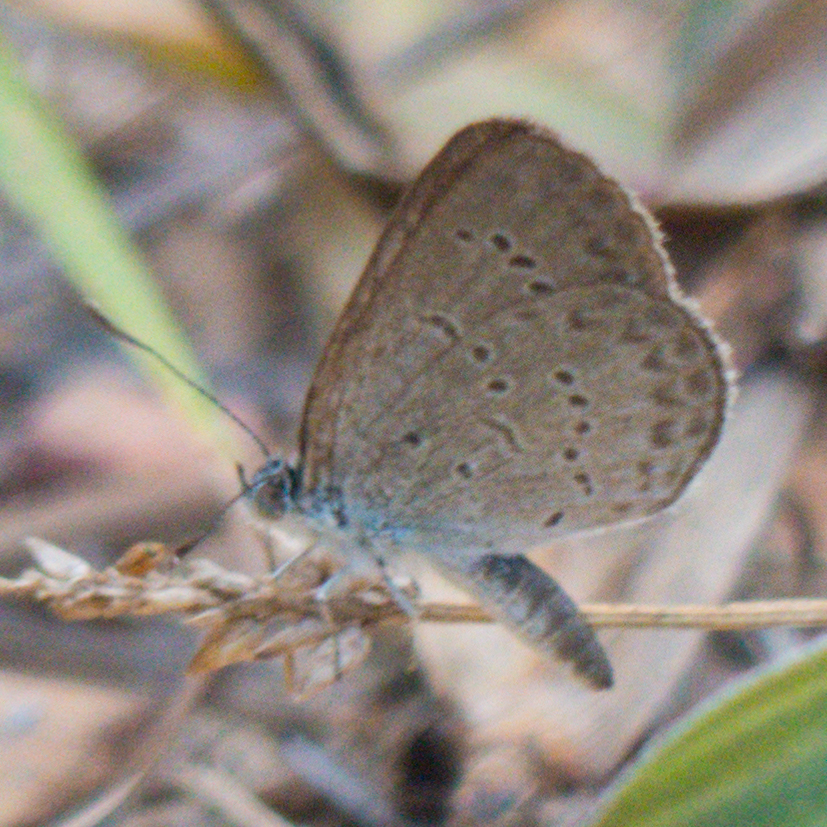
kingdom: Animalia
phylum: Arthropoda
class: Insecta
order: Lepidoptera
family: Lycaenidae
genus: Zizina
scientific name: Zizina otis
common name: Lesser grass blue
